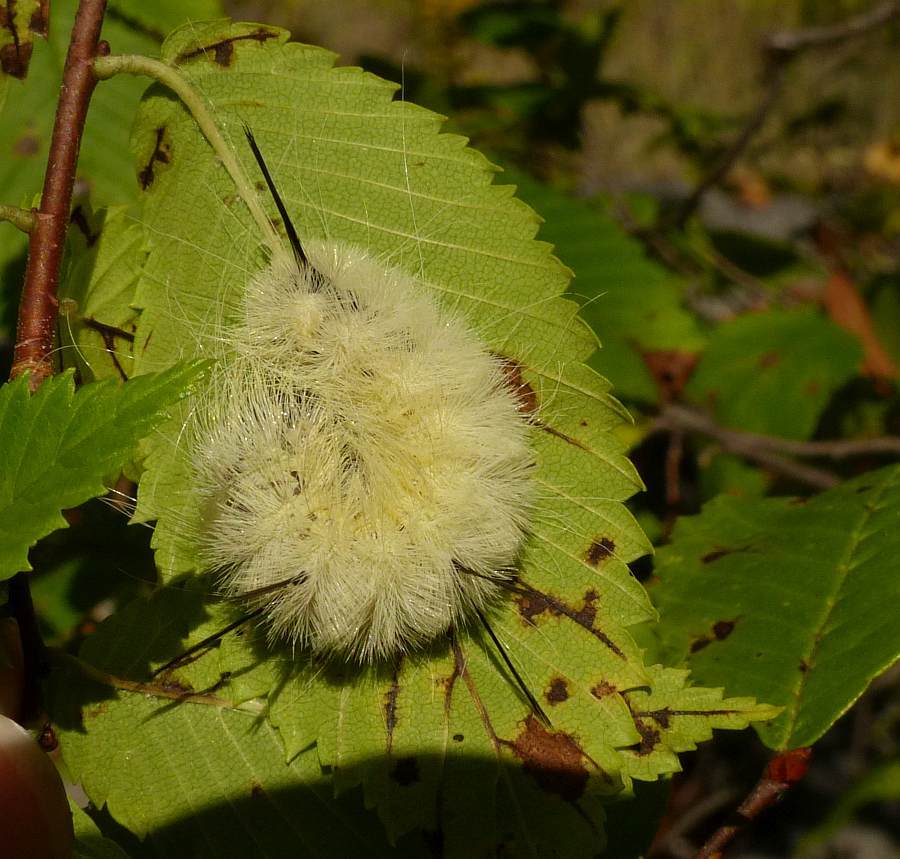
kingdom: Animalia
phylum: Arthropoda
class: Insecta
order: Lepidoptera
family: Noctuidae
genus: Acronicta
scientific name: Acronicta americana
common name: American dagger
